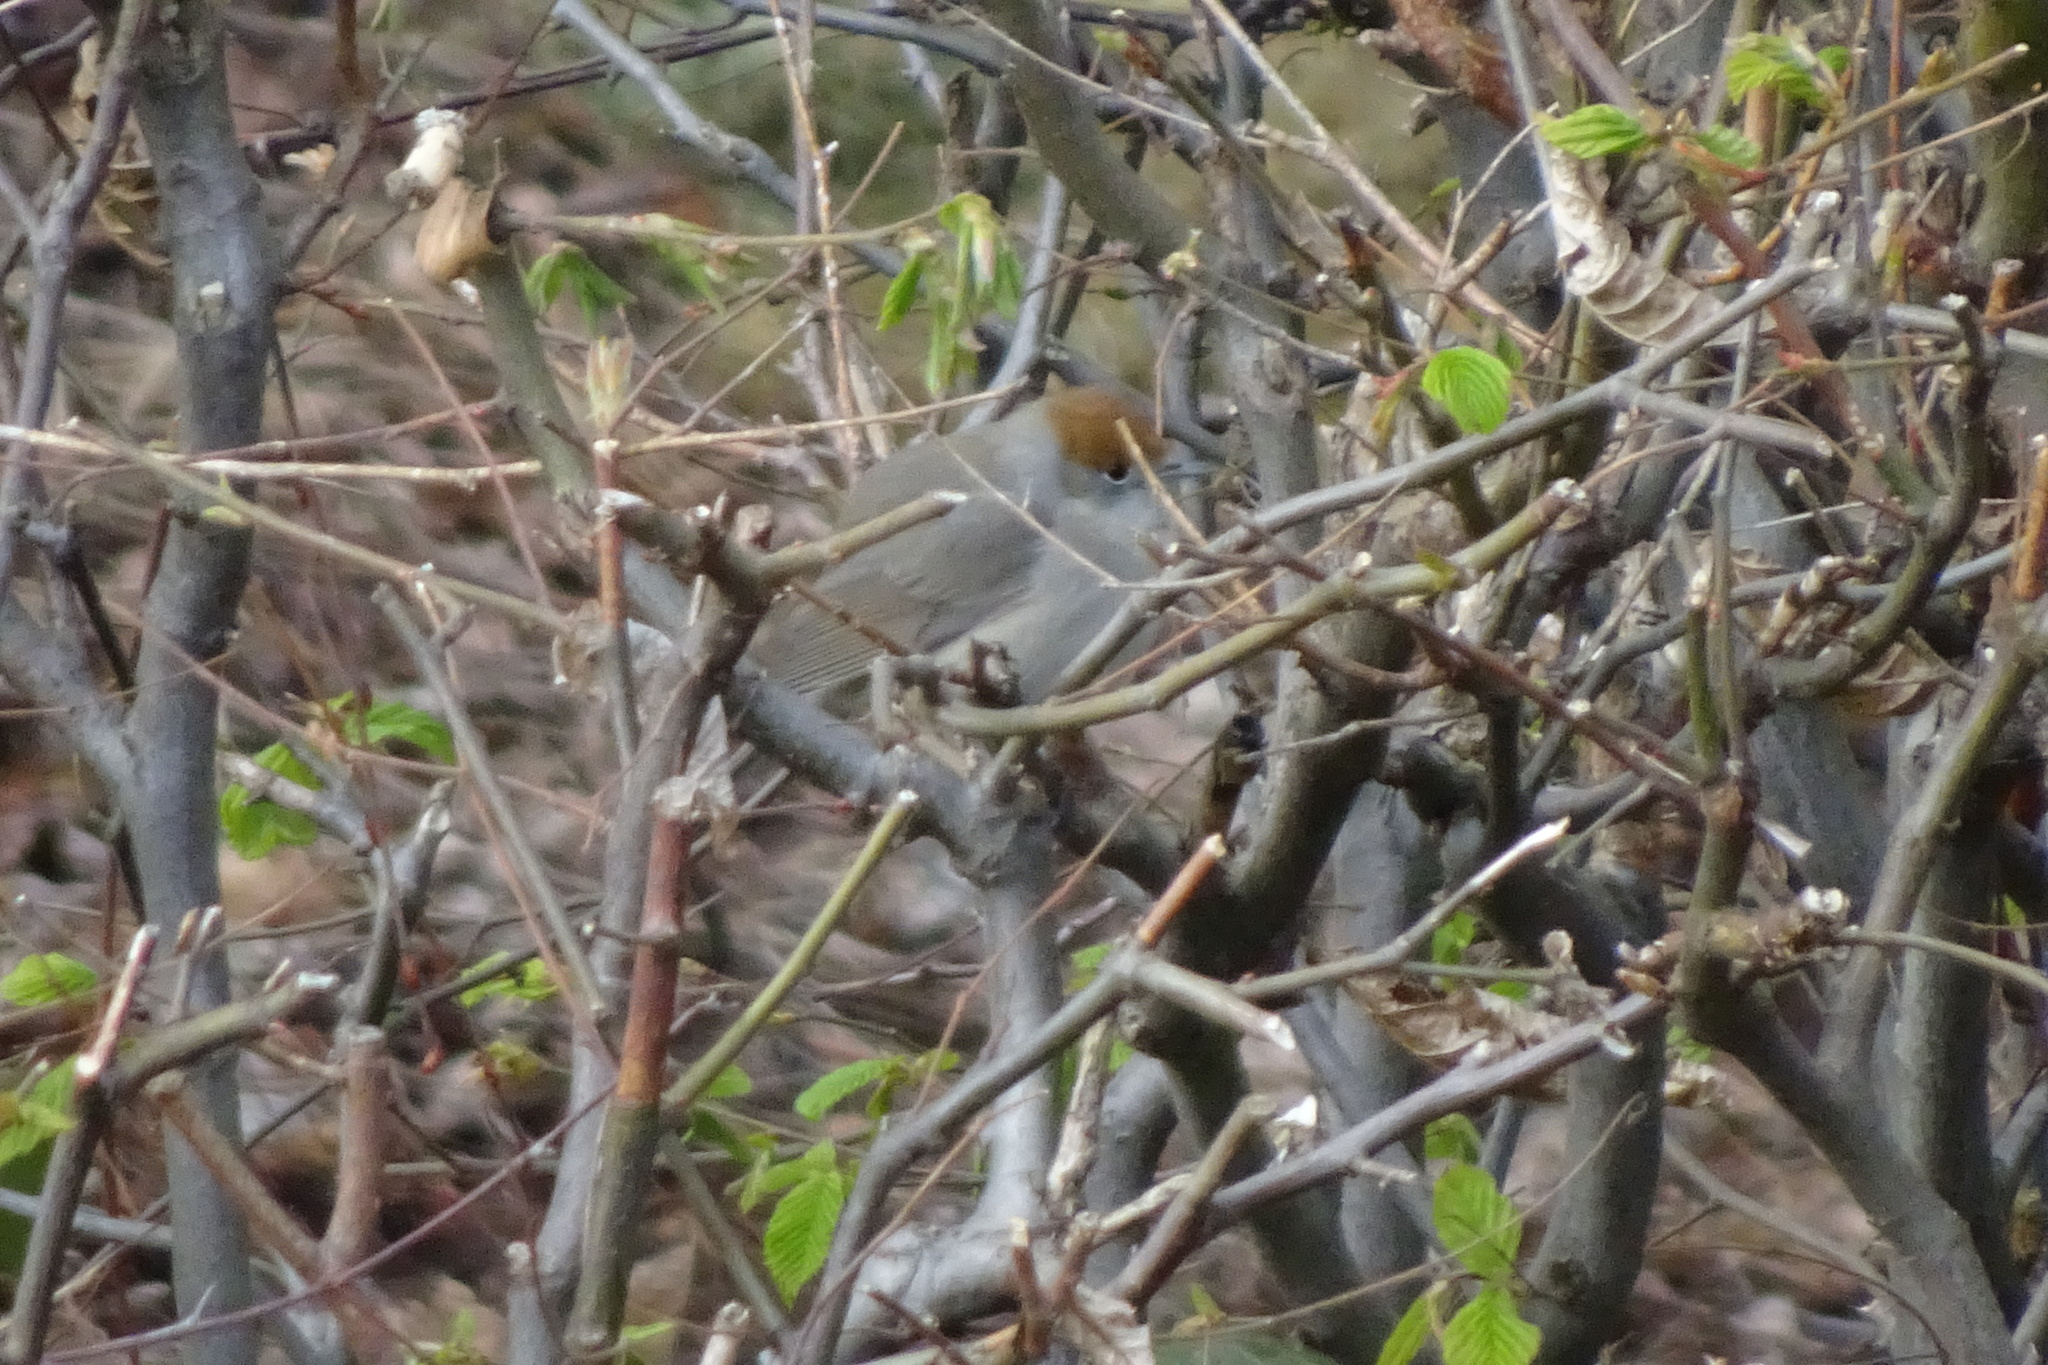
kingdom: Animalia
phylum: Chordata
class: Aves
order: Passeriformes
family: Sylviidae
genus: Sylvia
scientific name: Sylvia atricapilla
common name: Eurasian blackcap
